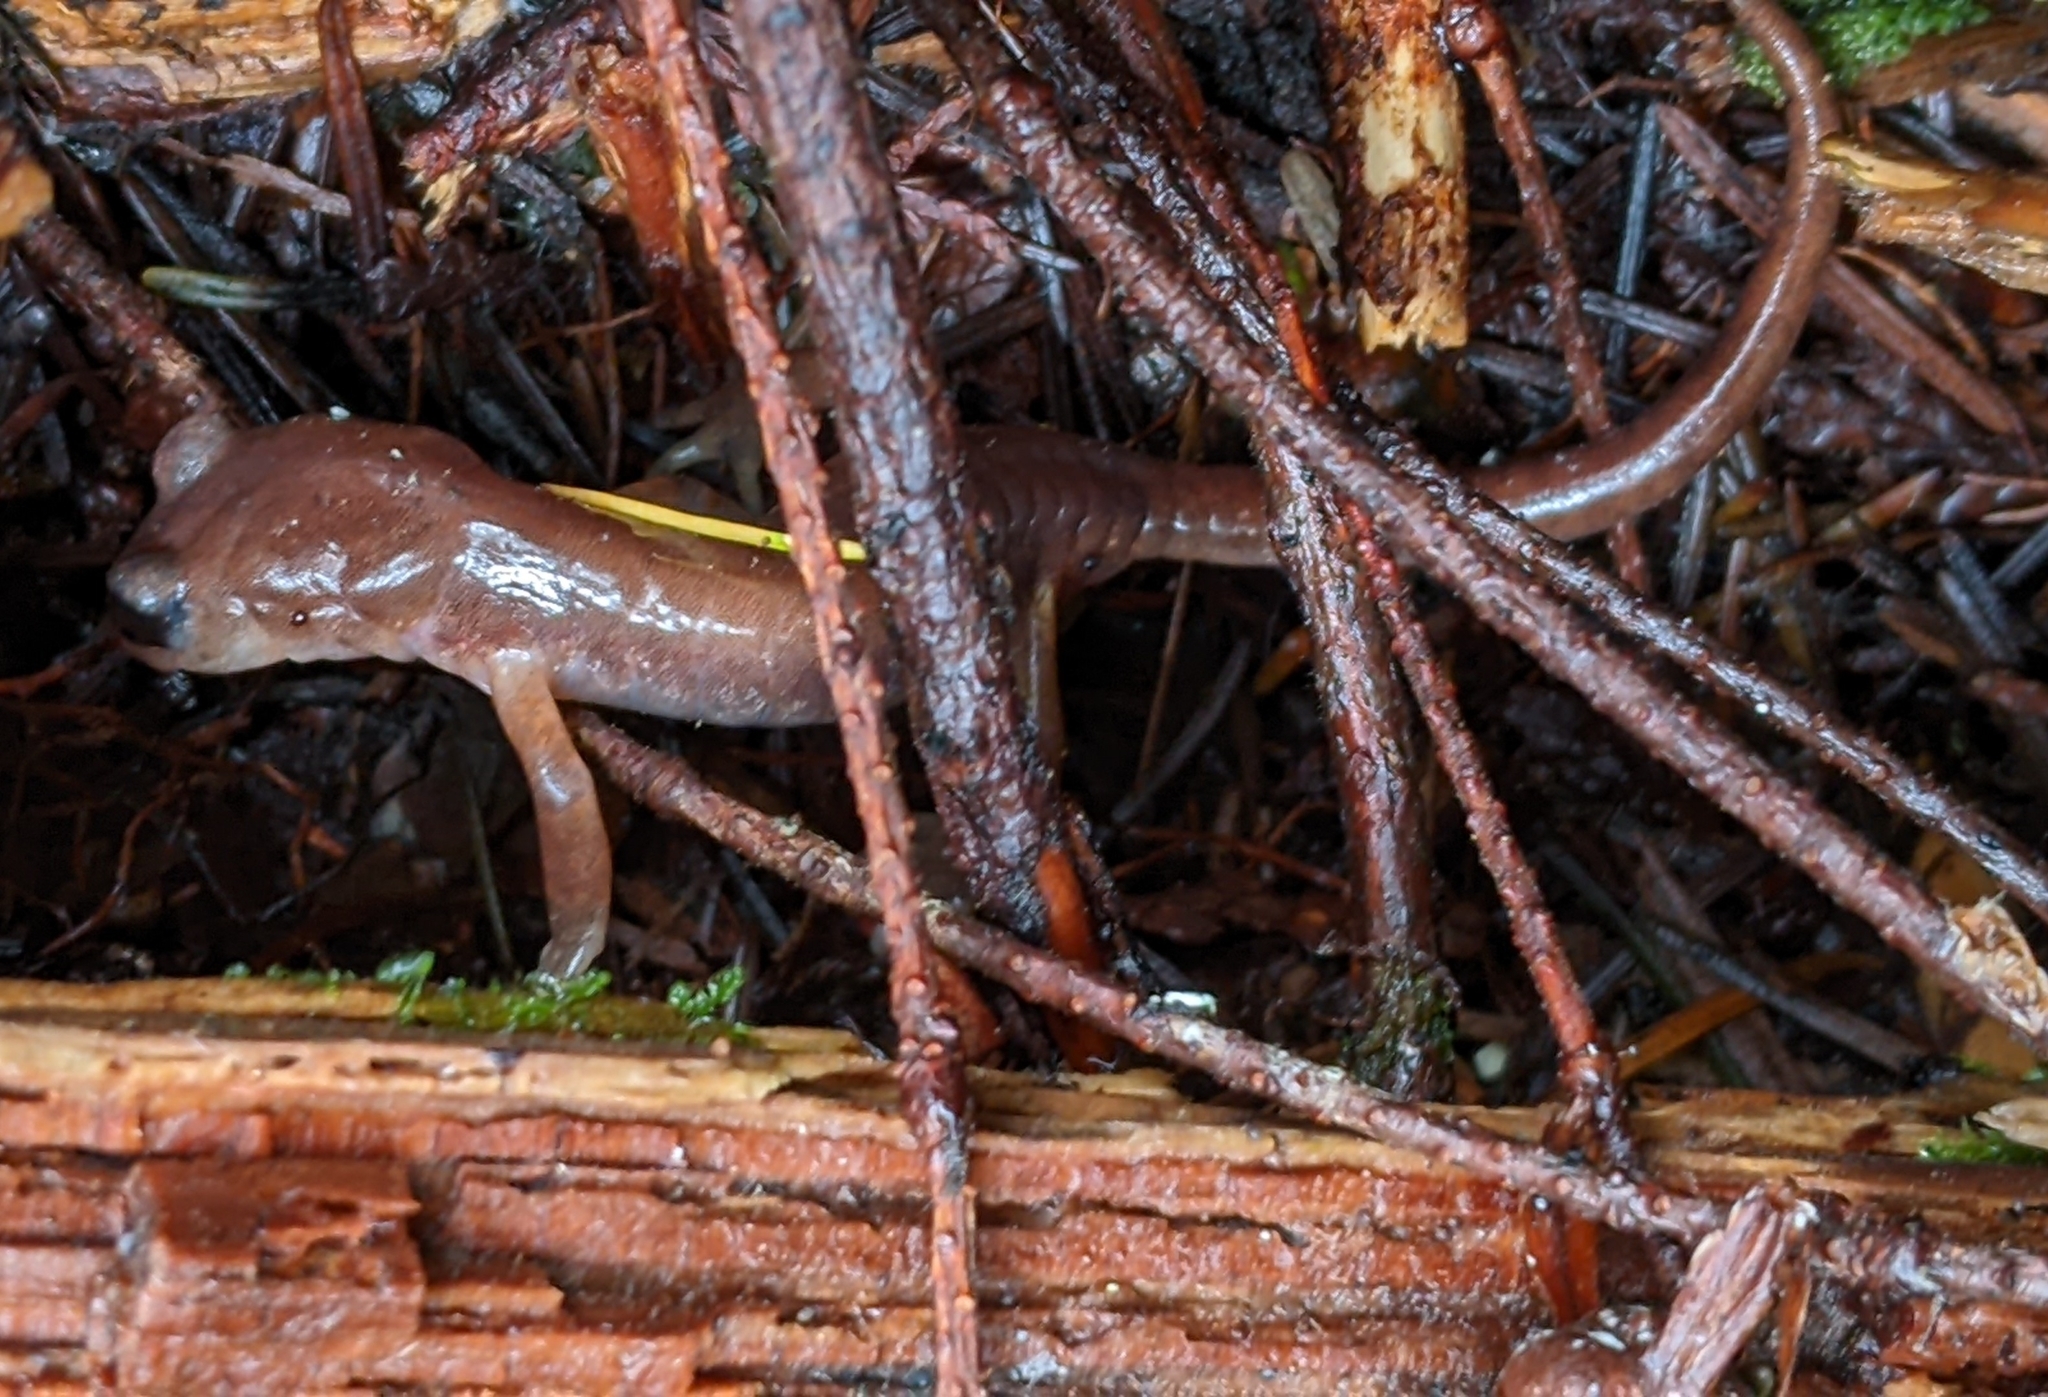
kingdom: Animalia
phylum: Chordata
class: Amphibia
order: Caudata
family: Plethodontidae
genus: Ensatina
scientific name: Ensatina eschscholtzii
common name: Ensatina
